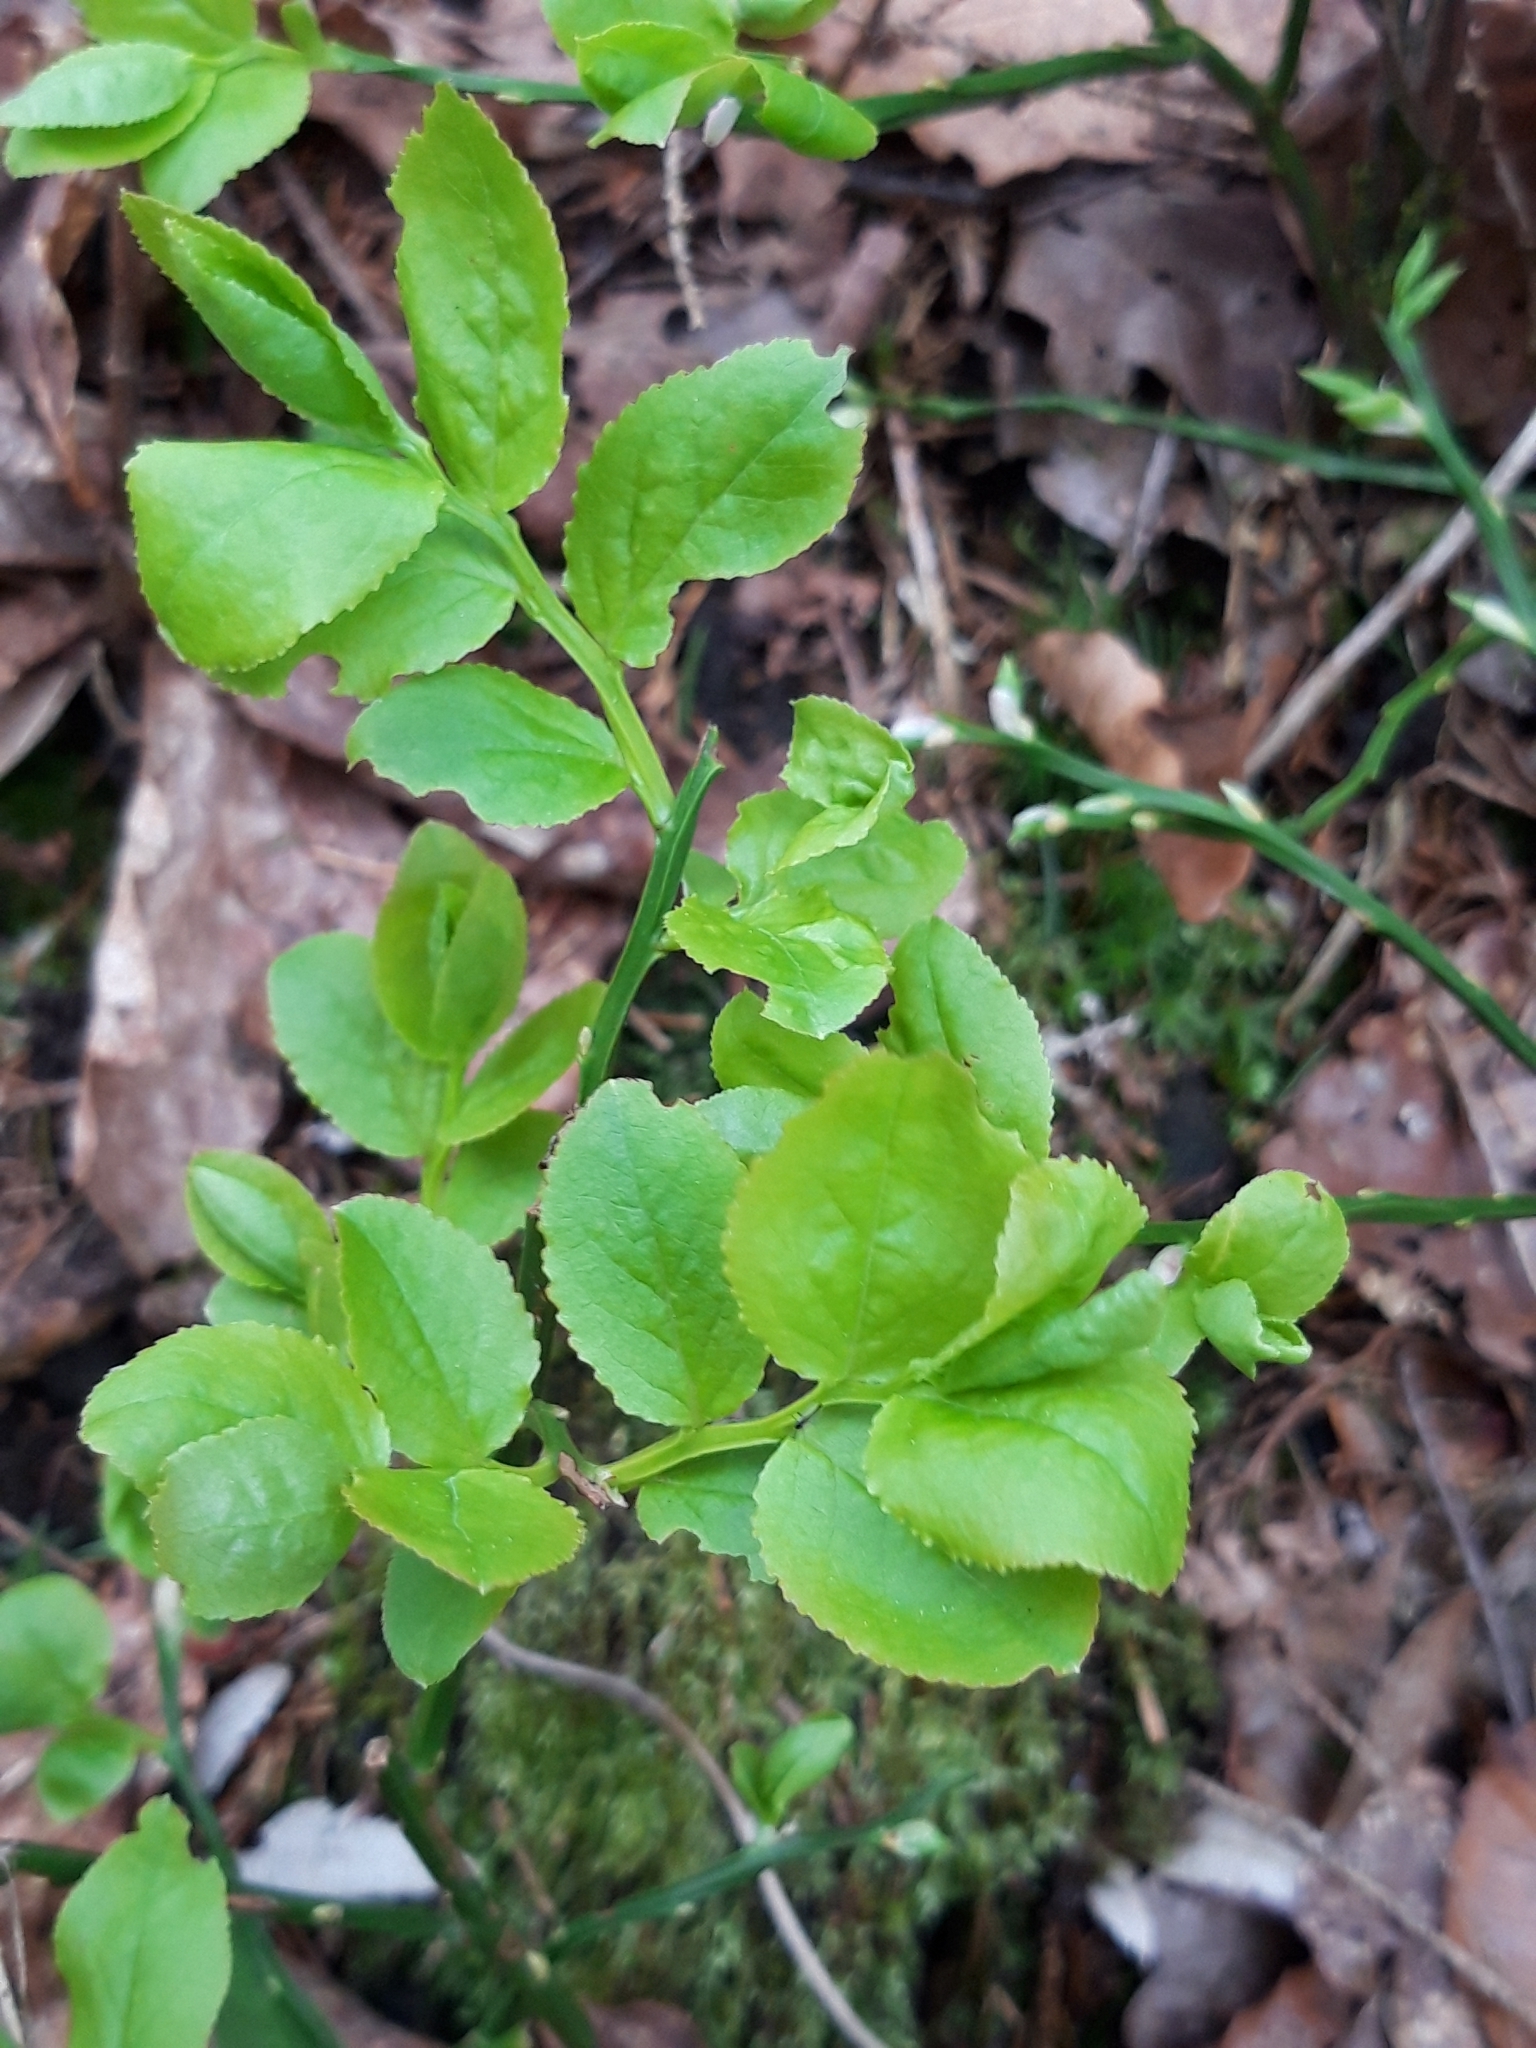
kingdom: Plantae
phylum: Tracheophyta
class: Magnoliopsida
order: Ericales
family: Ericaceae
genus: Vaccinium
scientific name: Vaccinium myrtillus
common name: Bilberry
